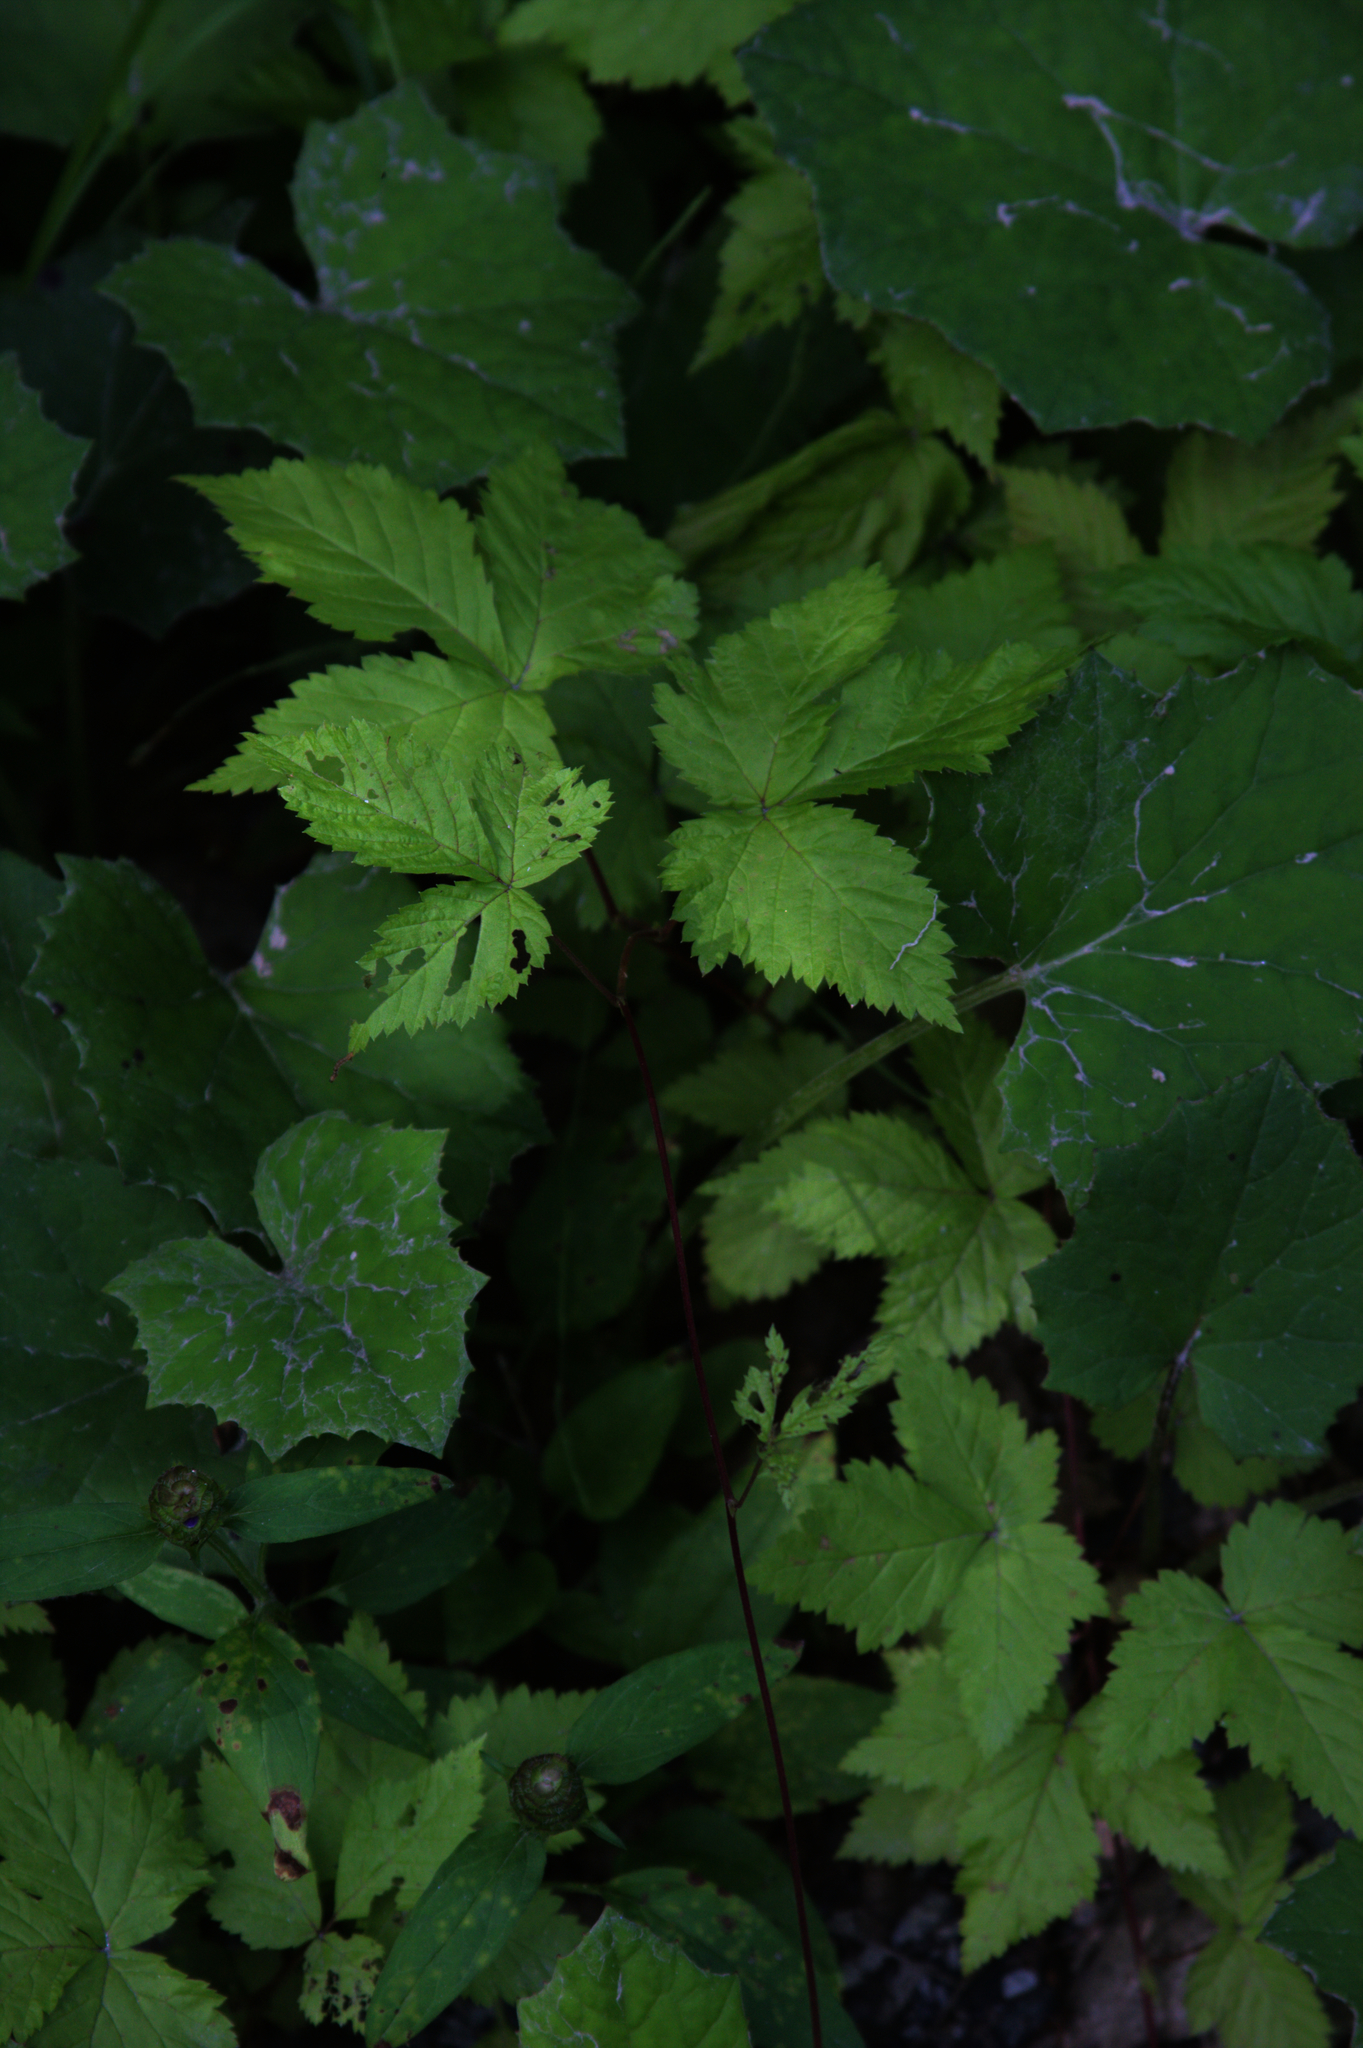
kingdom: Plantae
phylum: Tracheophyta
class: Magnoliopsida
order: Rosales
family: Rosaceae
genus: Rubus
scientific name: Rubus pubescens
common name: Dwarf raspberry
